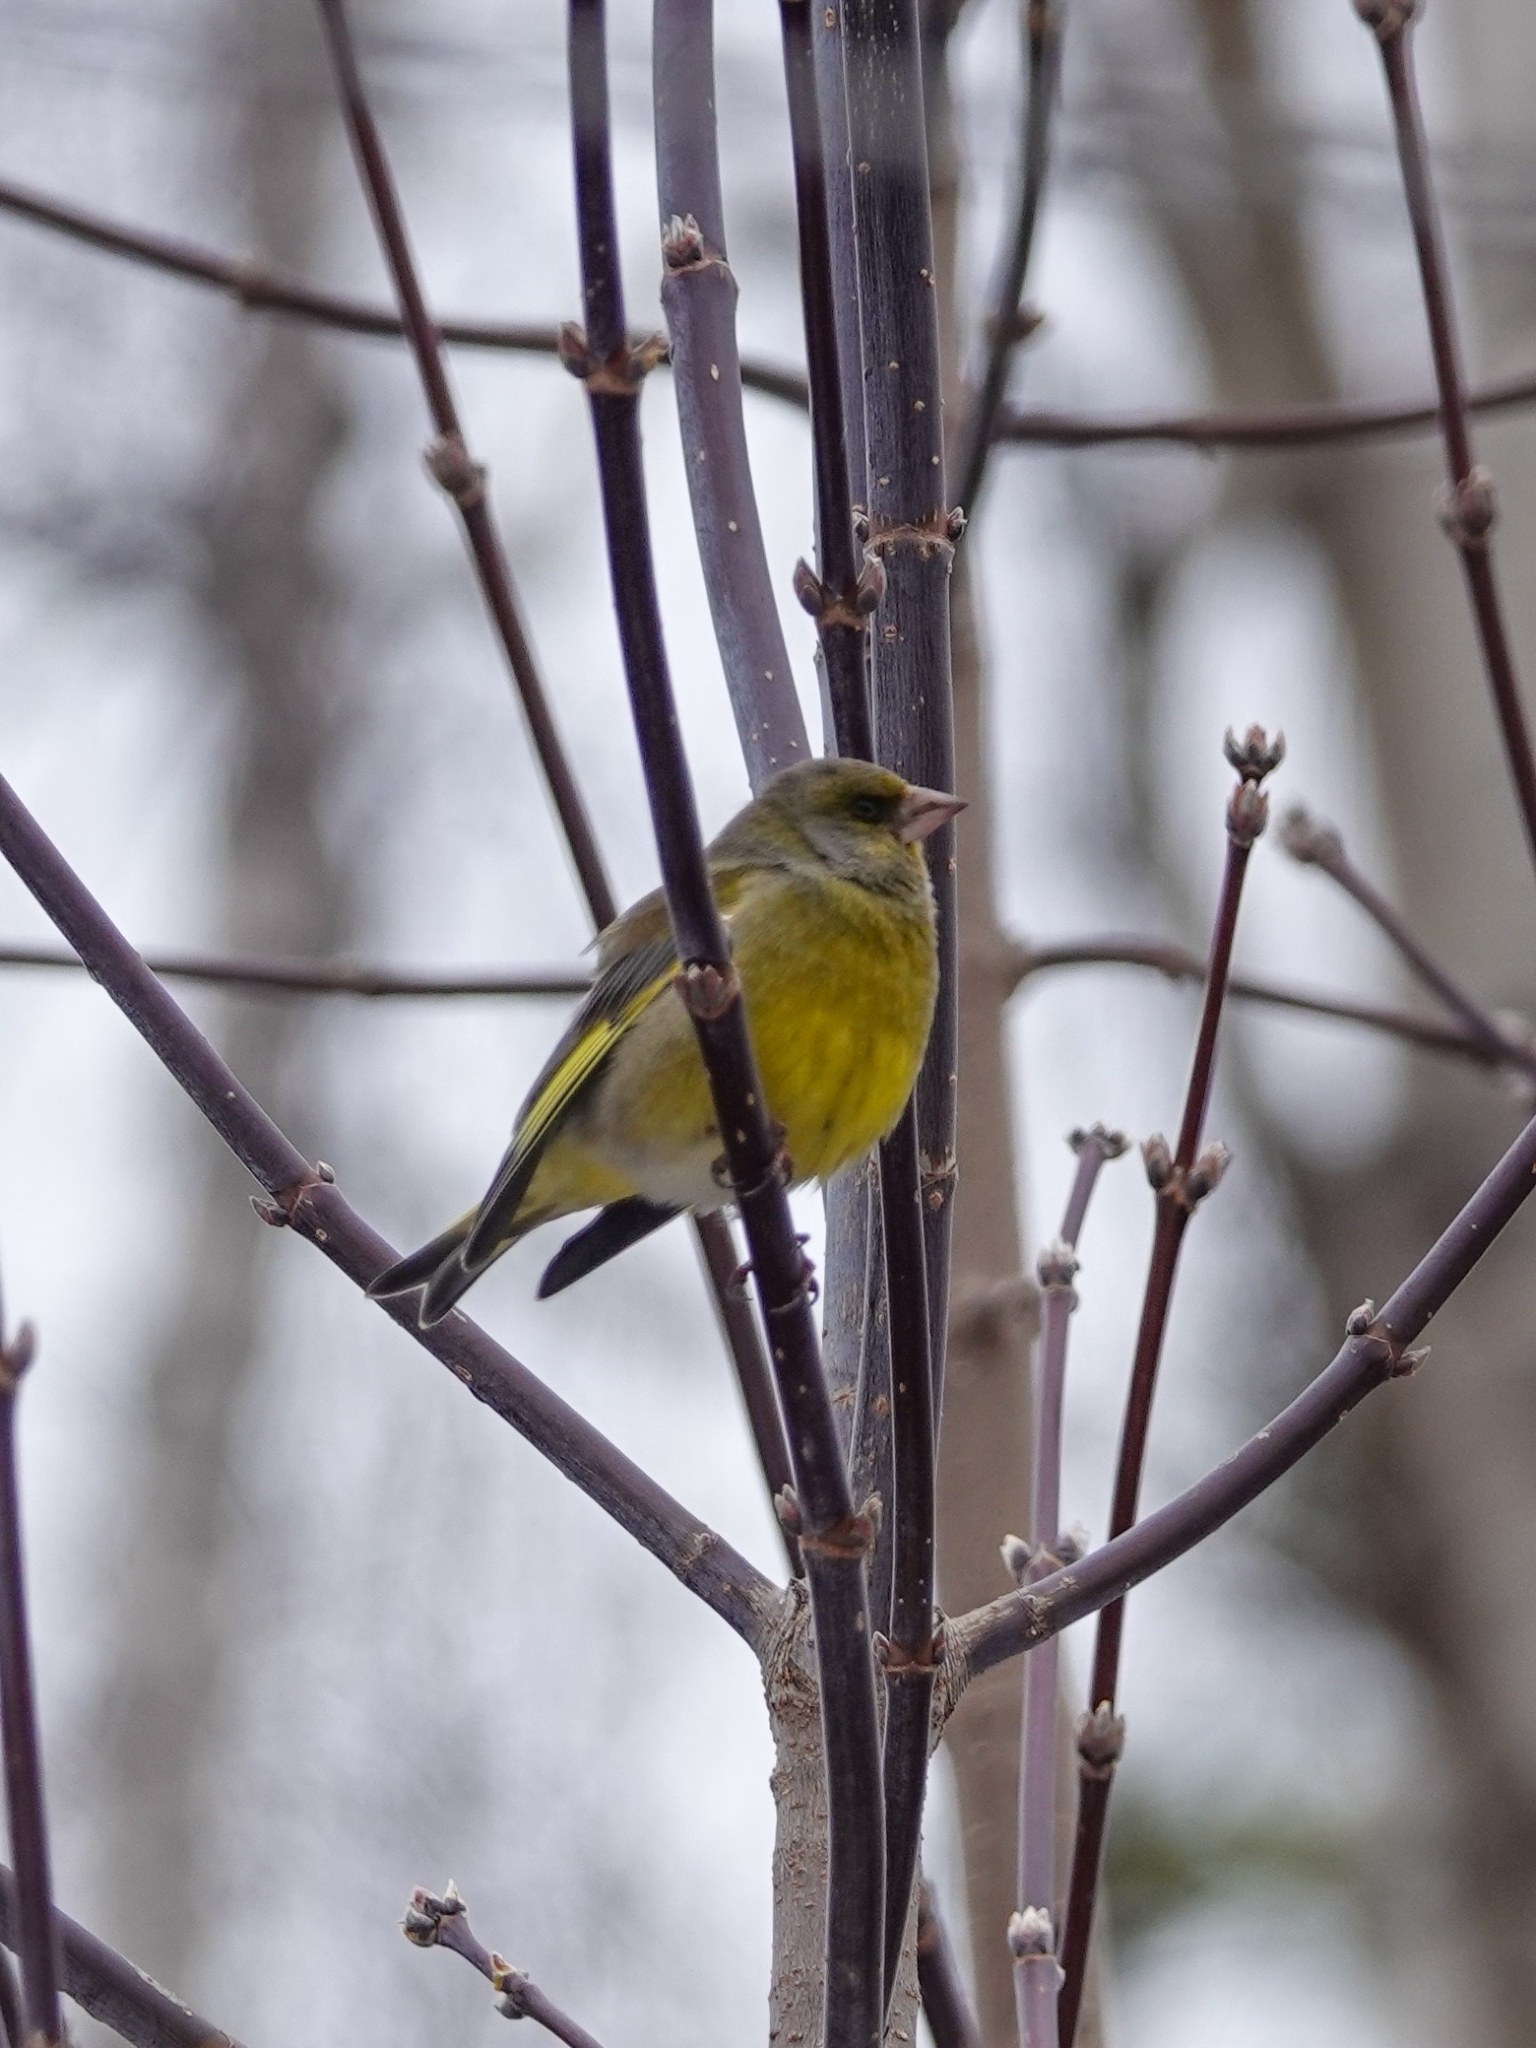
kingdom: Plantae
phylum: Tracheophyta
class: Liliopsida
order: Poales
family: Poaceae
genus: Chloris
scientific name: Chloris chloris
